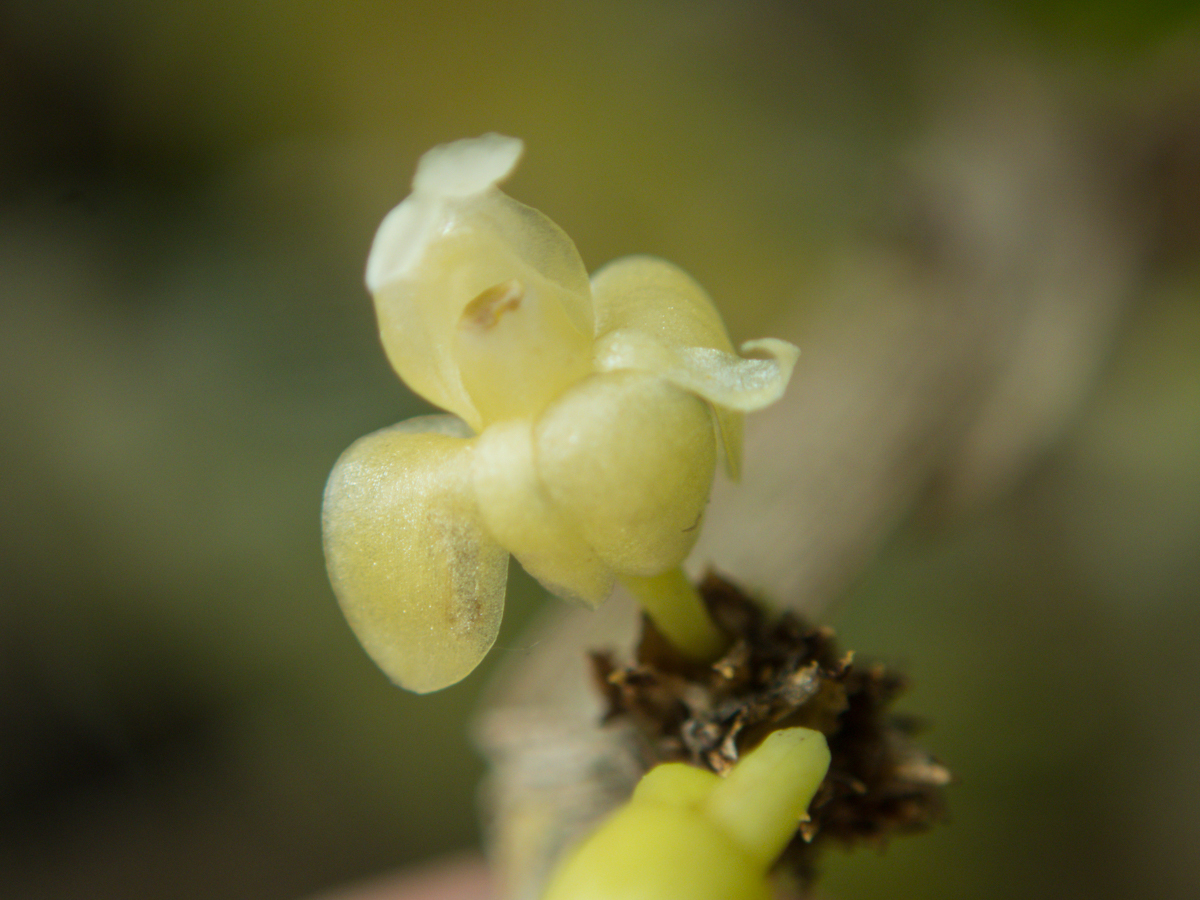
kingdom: Plantae
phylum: Tracheophyta
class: Liliopsida
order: Asparagales
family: Orchidaceae
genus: Dendrobium
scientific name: Dendrobium aloifolium
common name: Aloe-like dendrobium
